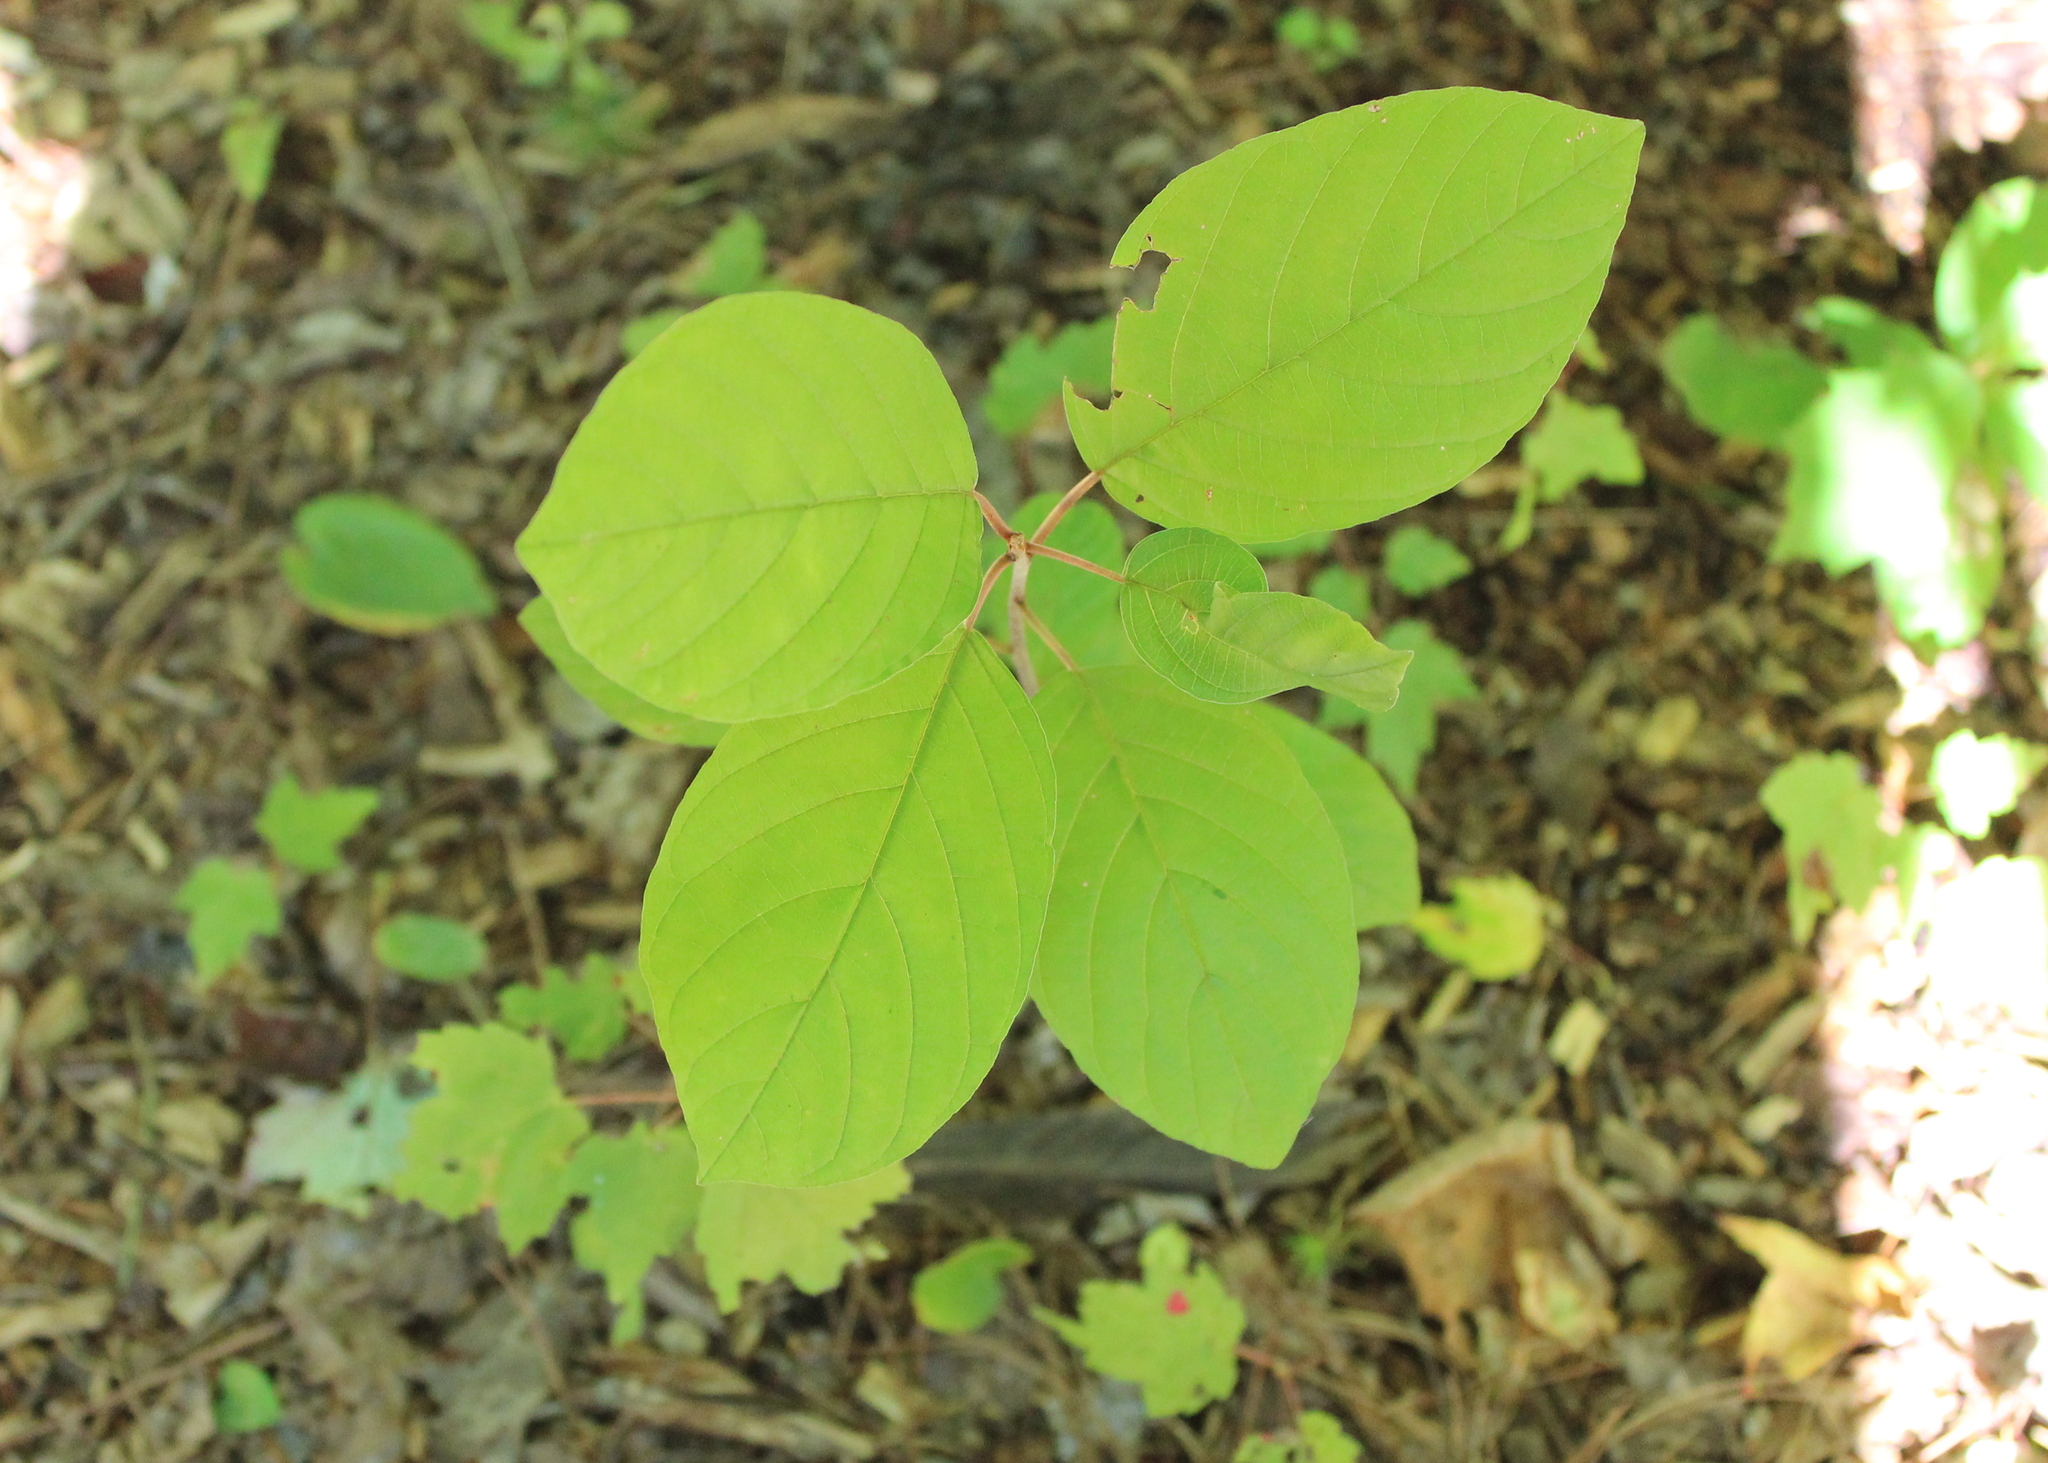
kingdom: Plantae
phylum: Tracheophyta
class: Magnoliopsida
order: Rosales
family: Rhamnaceae
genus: Frangula
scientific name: Frangula alnus
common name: Alder buckthorn
